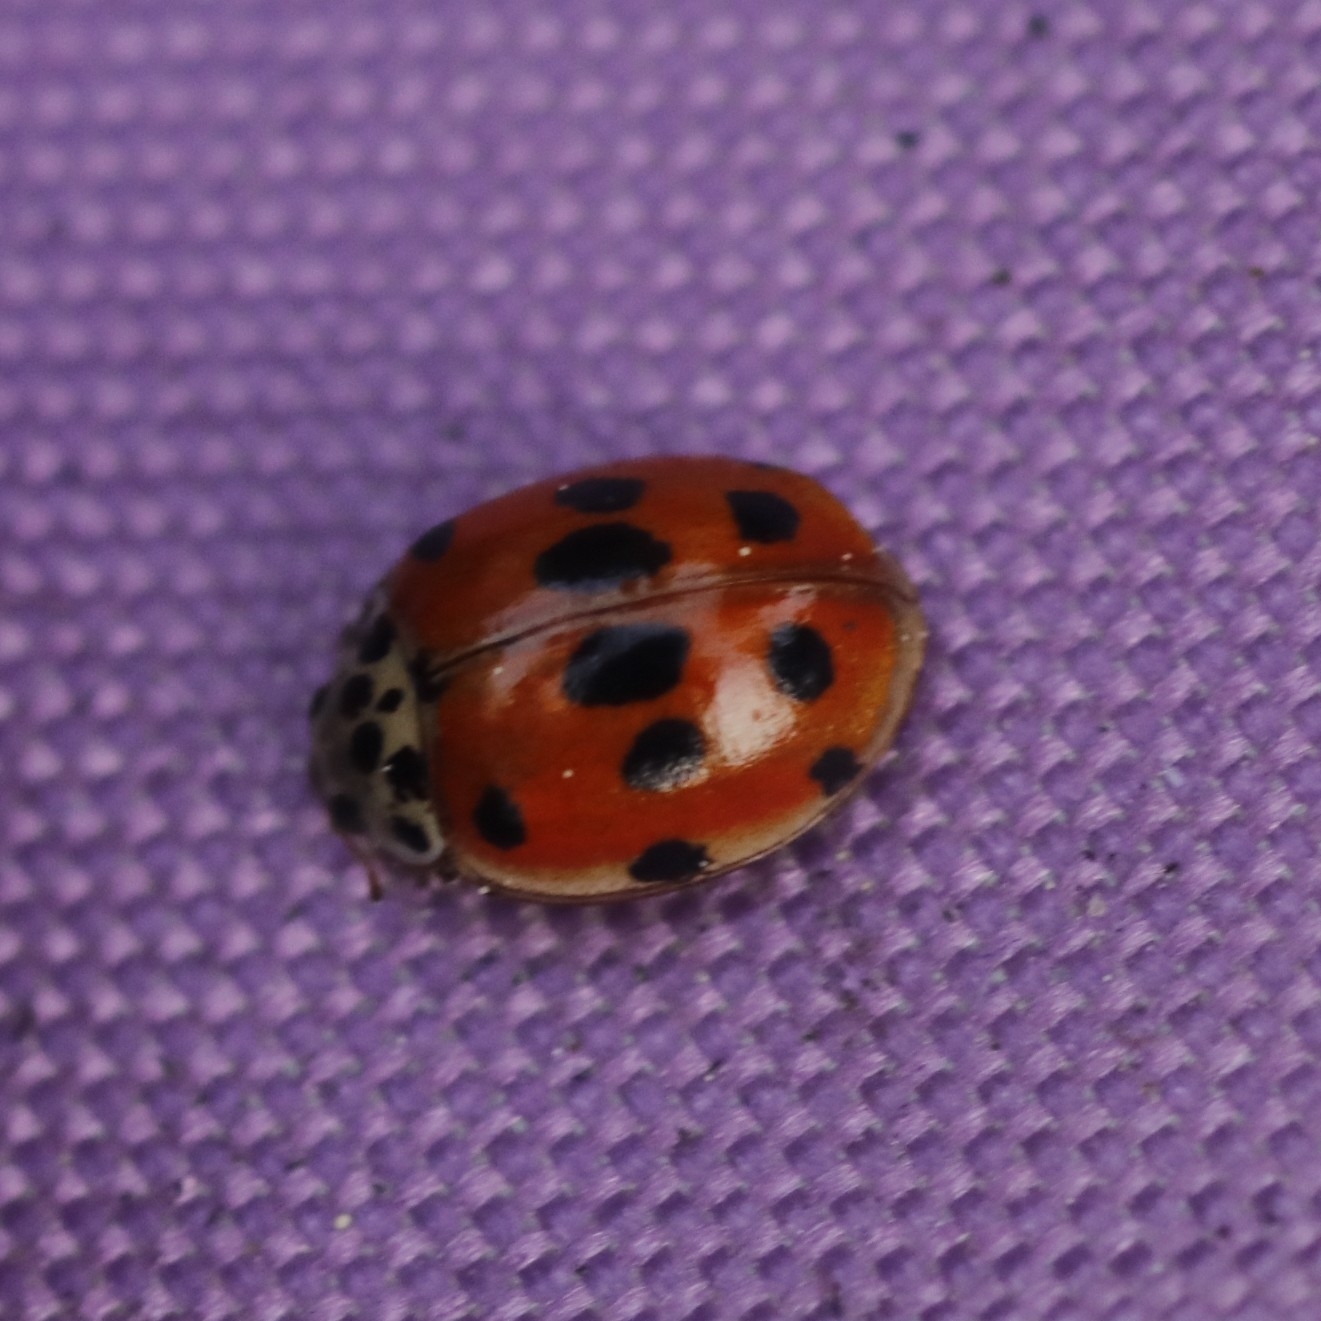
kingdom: Animalia
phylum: Arthropoda
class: Insecta
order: Coleoptera
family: Coccinellidae
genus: Adalia
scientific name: Adalia decempunctata
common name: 10-spot ladybird
